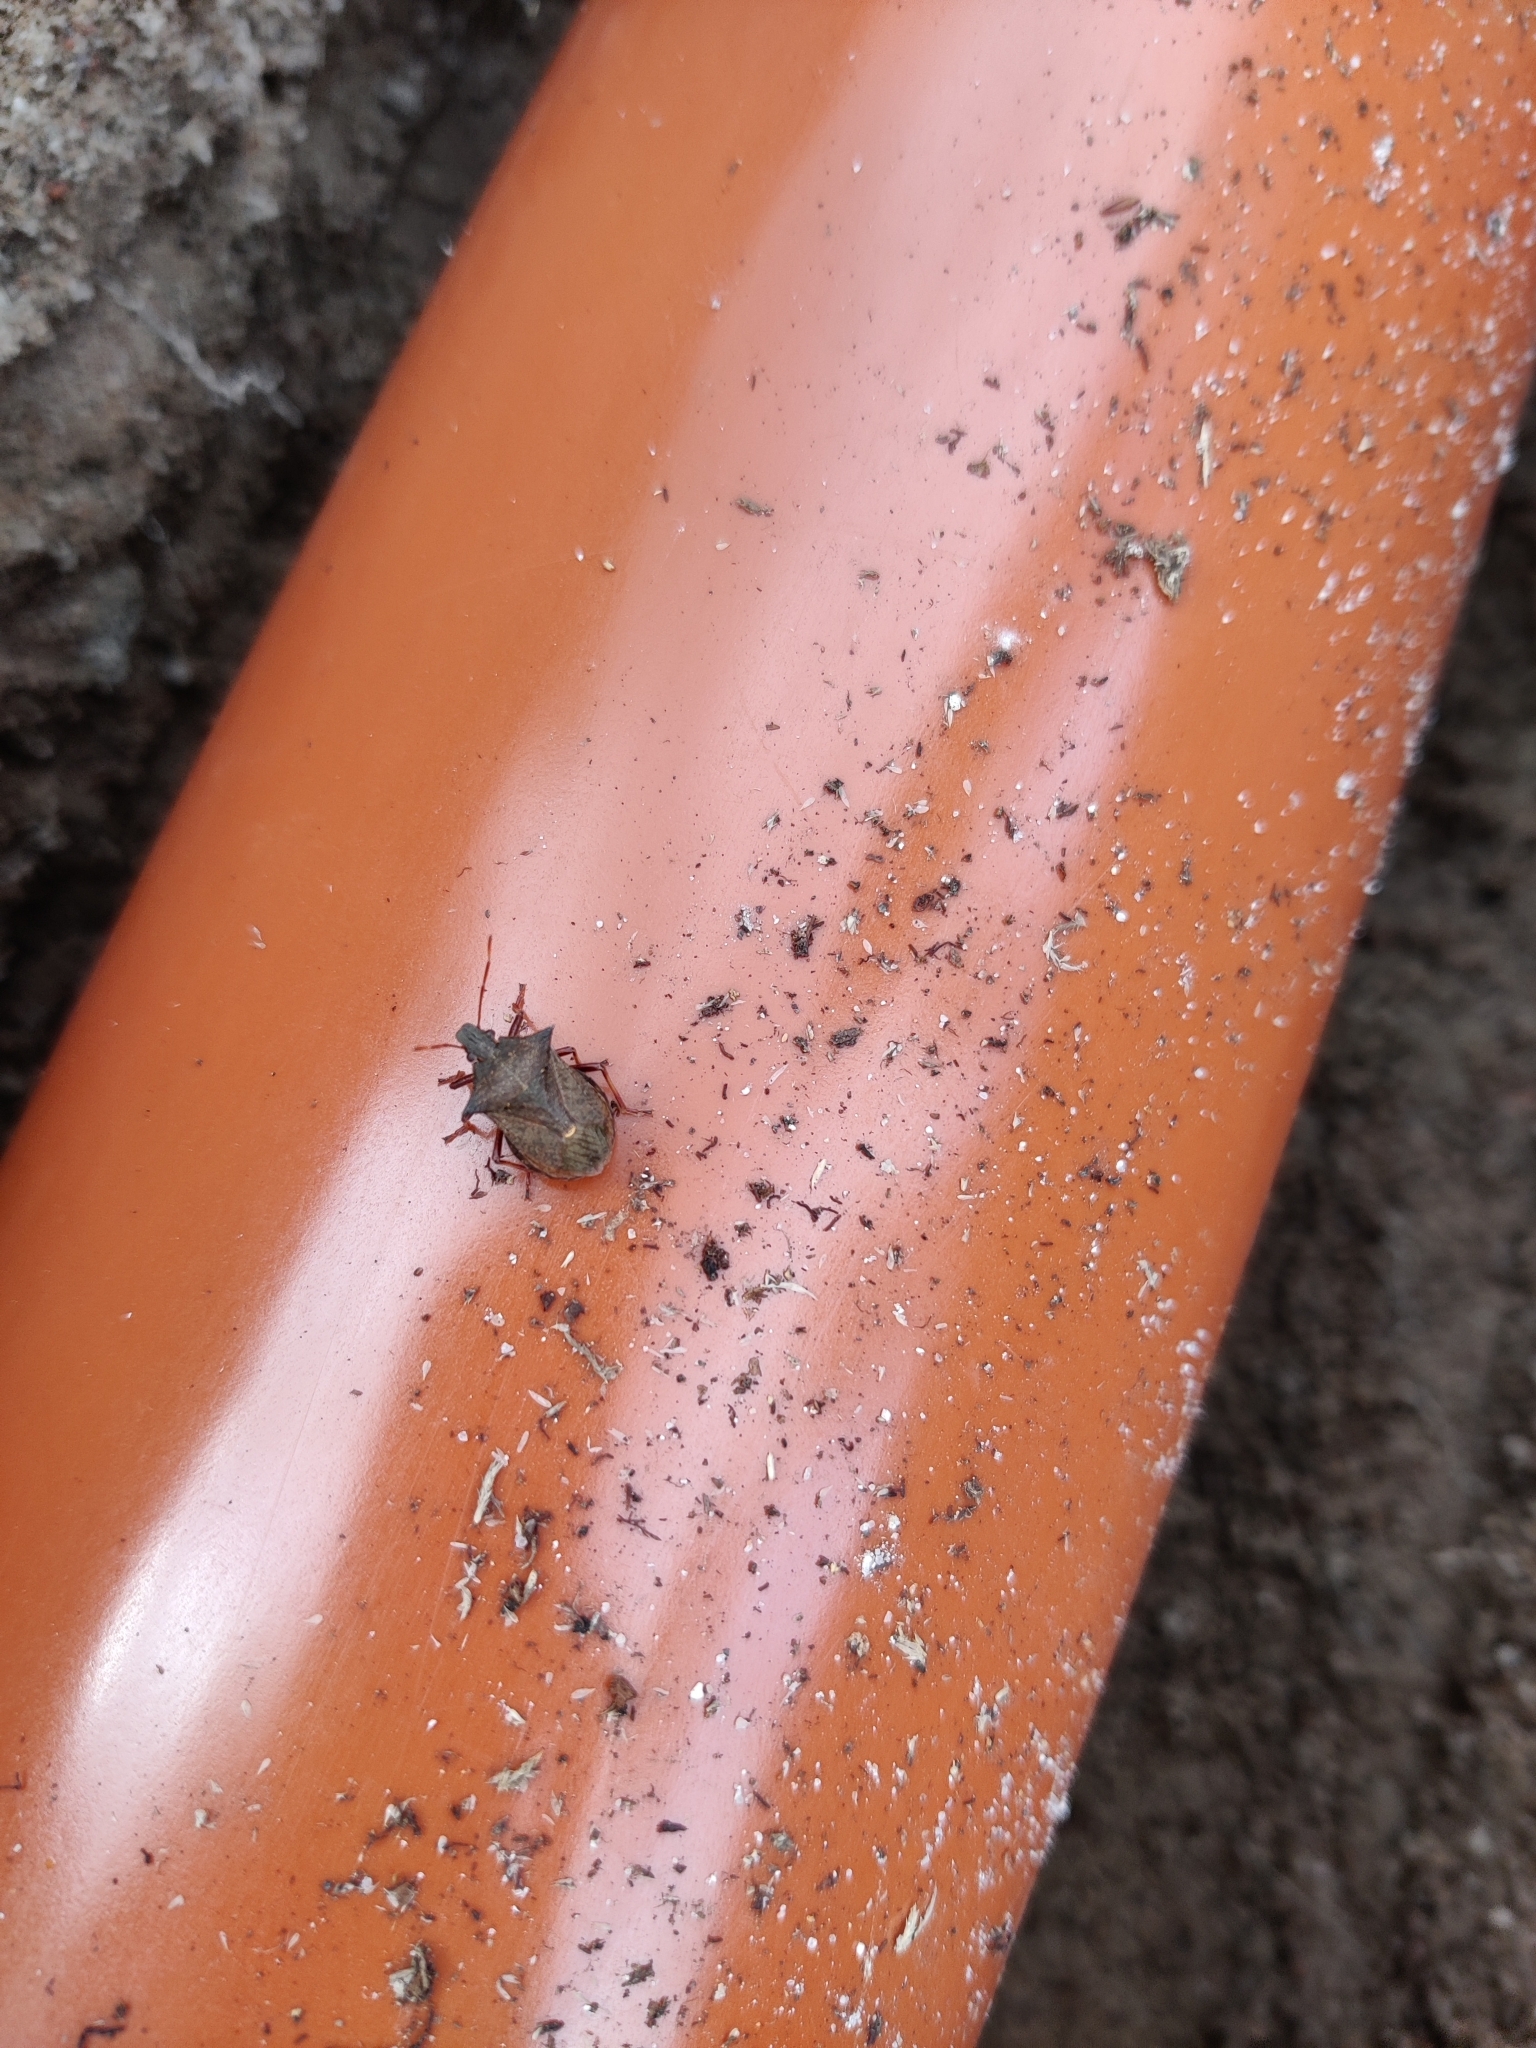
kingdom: Animalia
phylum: Arthropoda
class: Insecta
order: Hemiptera
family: Pentatomidae
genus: Picromerus
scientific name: Picromerus bidens
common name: Spiked shieldbug
